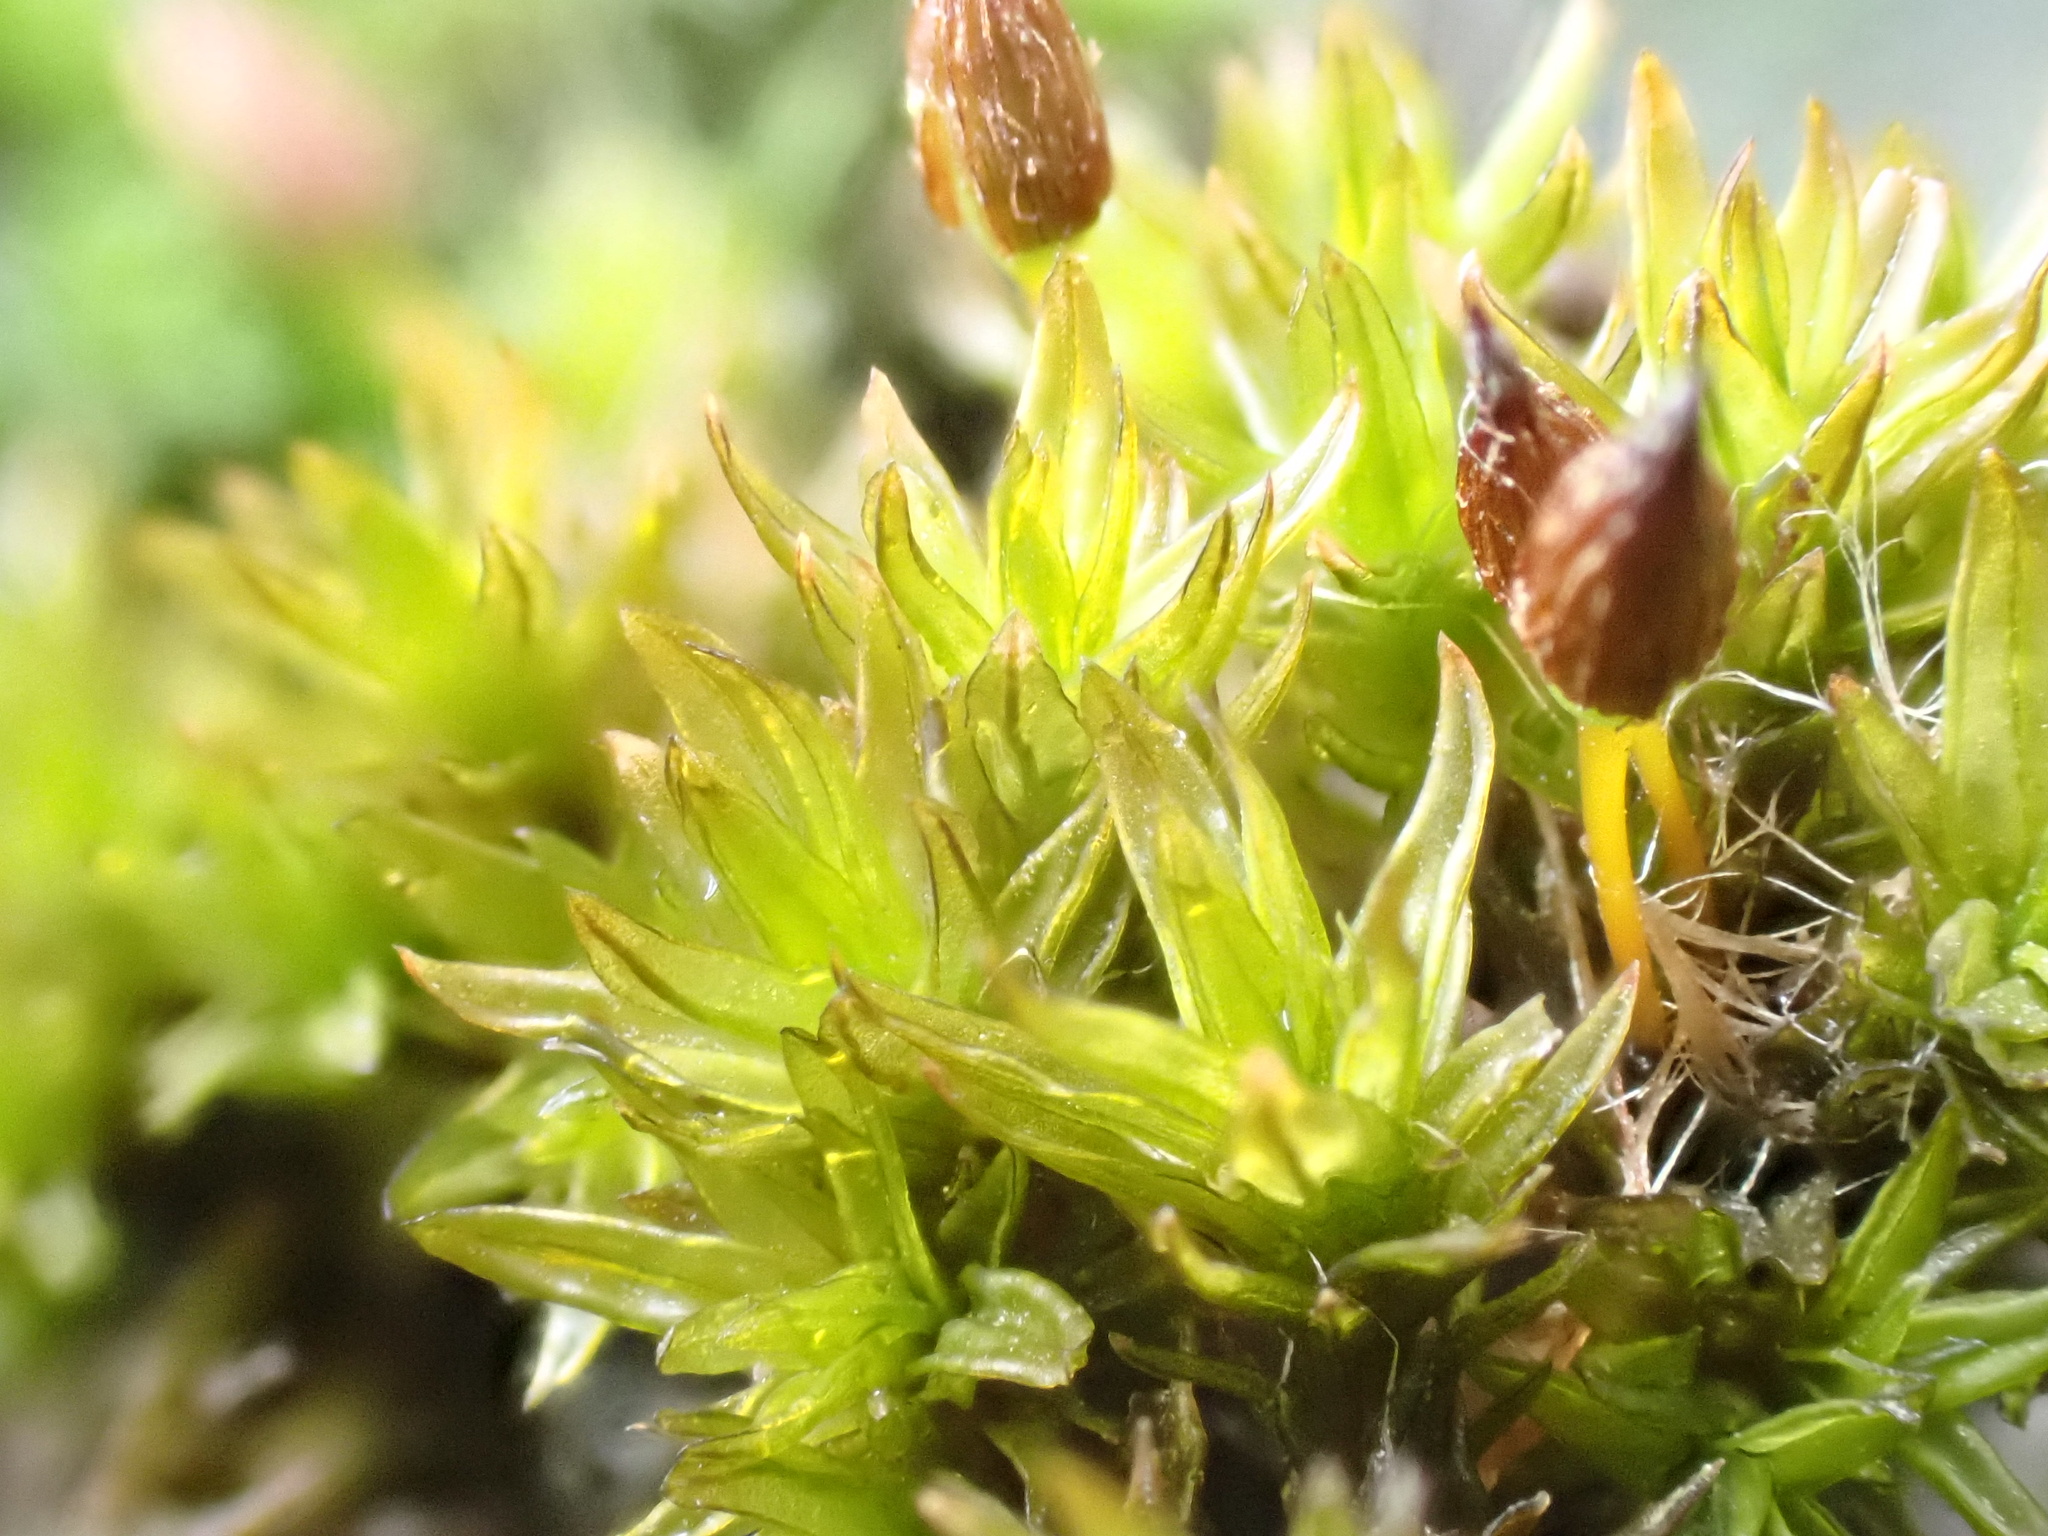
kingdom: Plantae
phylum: Bryophyta
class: Bryopsida
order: Orthotrichales
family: Orthotrichaceae
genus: Orthotrichum
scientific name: Orthotrichum anomalum
